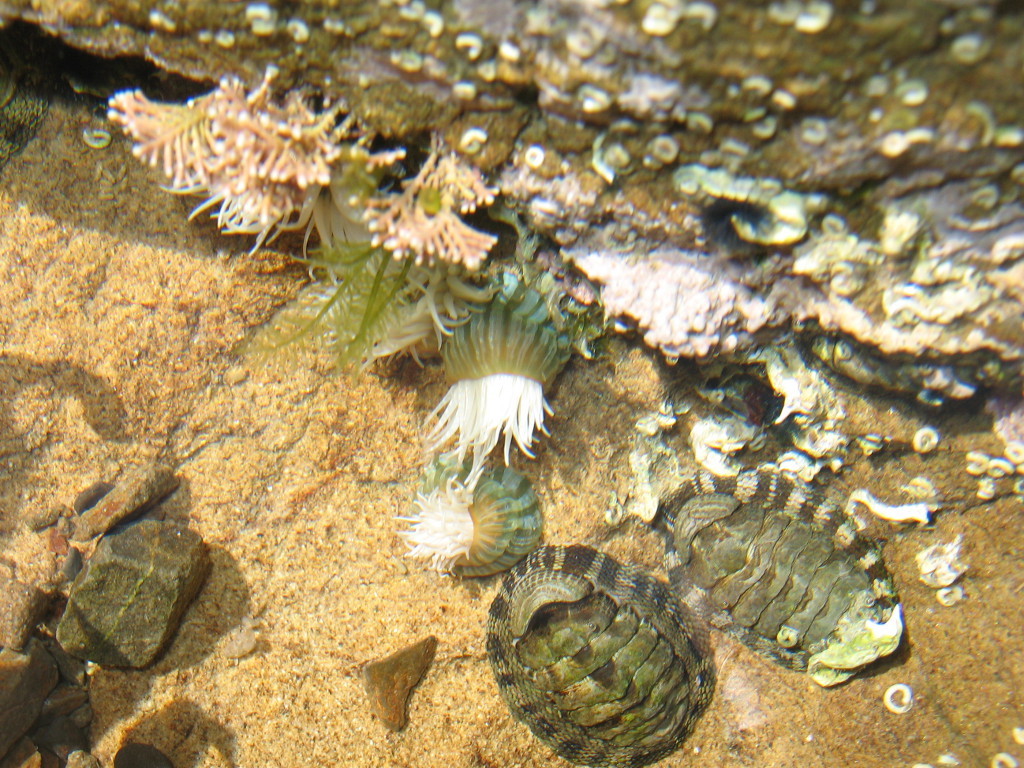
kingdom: Animalia
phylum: Cnidaria
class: Anthozoa
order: Actiniaria
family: Sagartiidae
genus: Anthothoe
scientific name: Anthothoe albocincta
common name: Orange striped anemone
